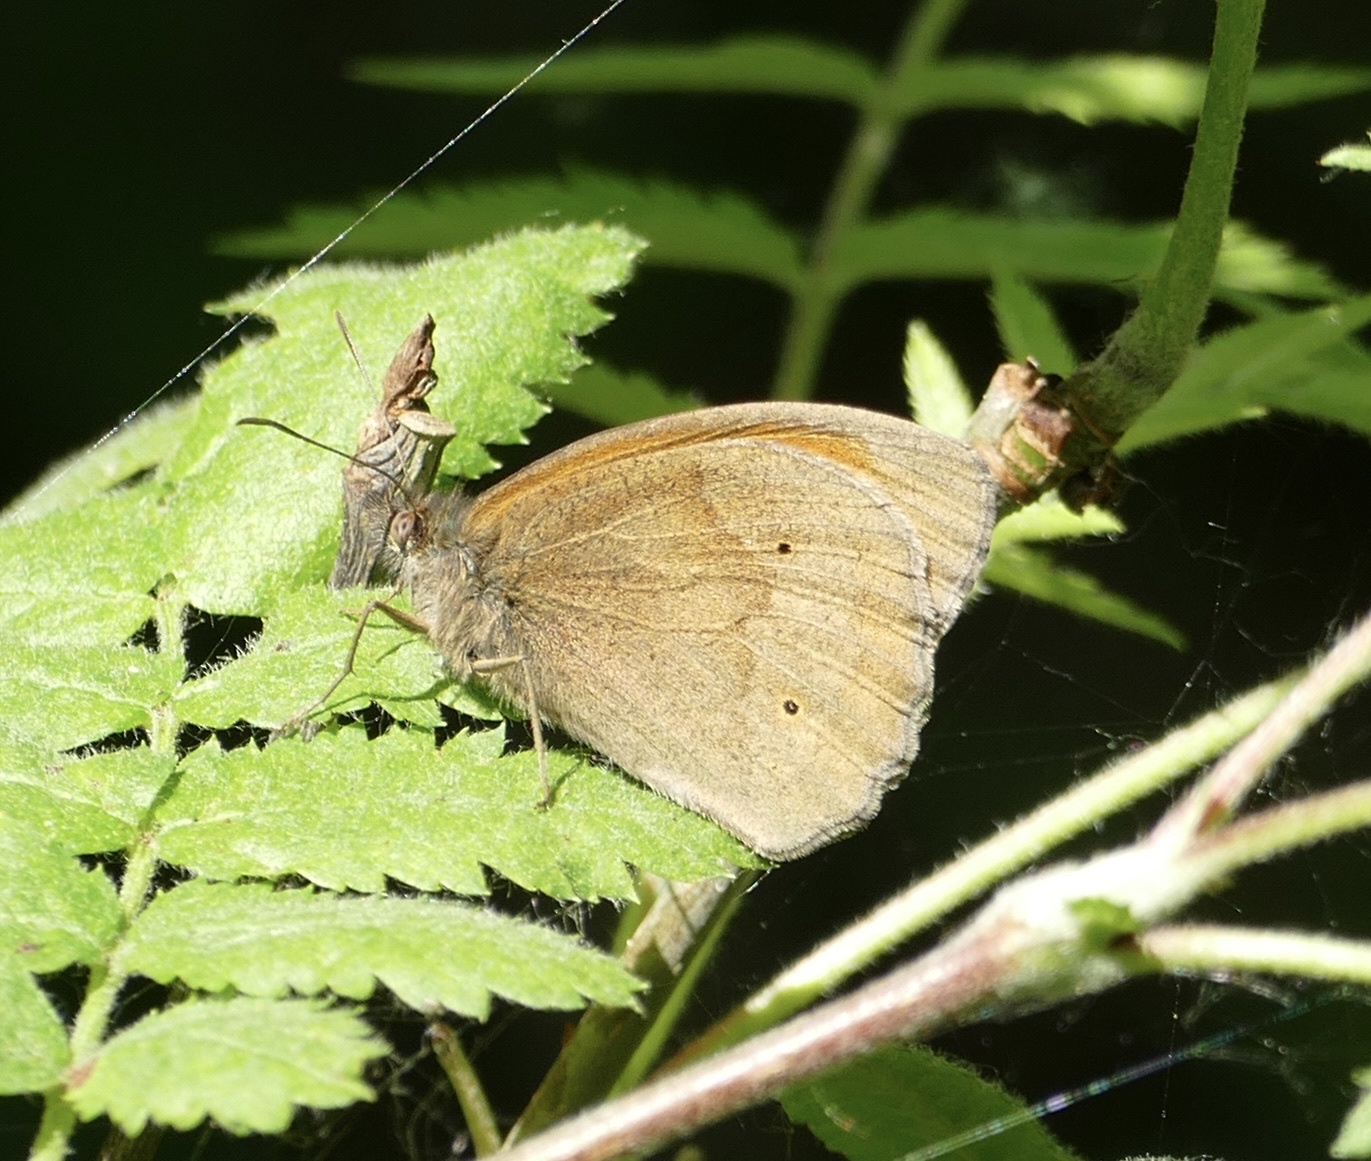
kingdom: Animalia
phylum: Arthropoda
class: Insecta
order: Lepidoptera
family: Nymphalidae
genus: Maniola
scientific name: Maniola jurtina
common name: Meadow brown
